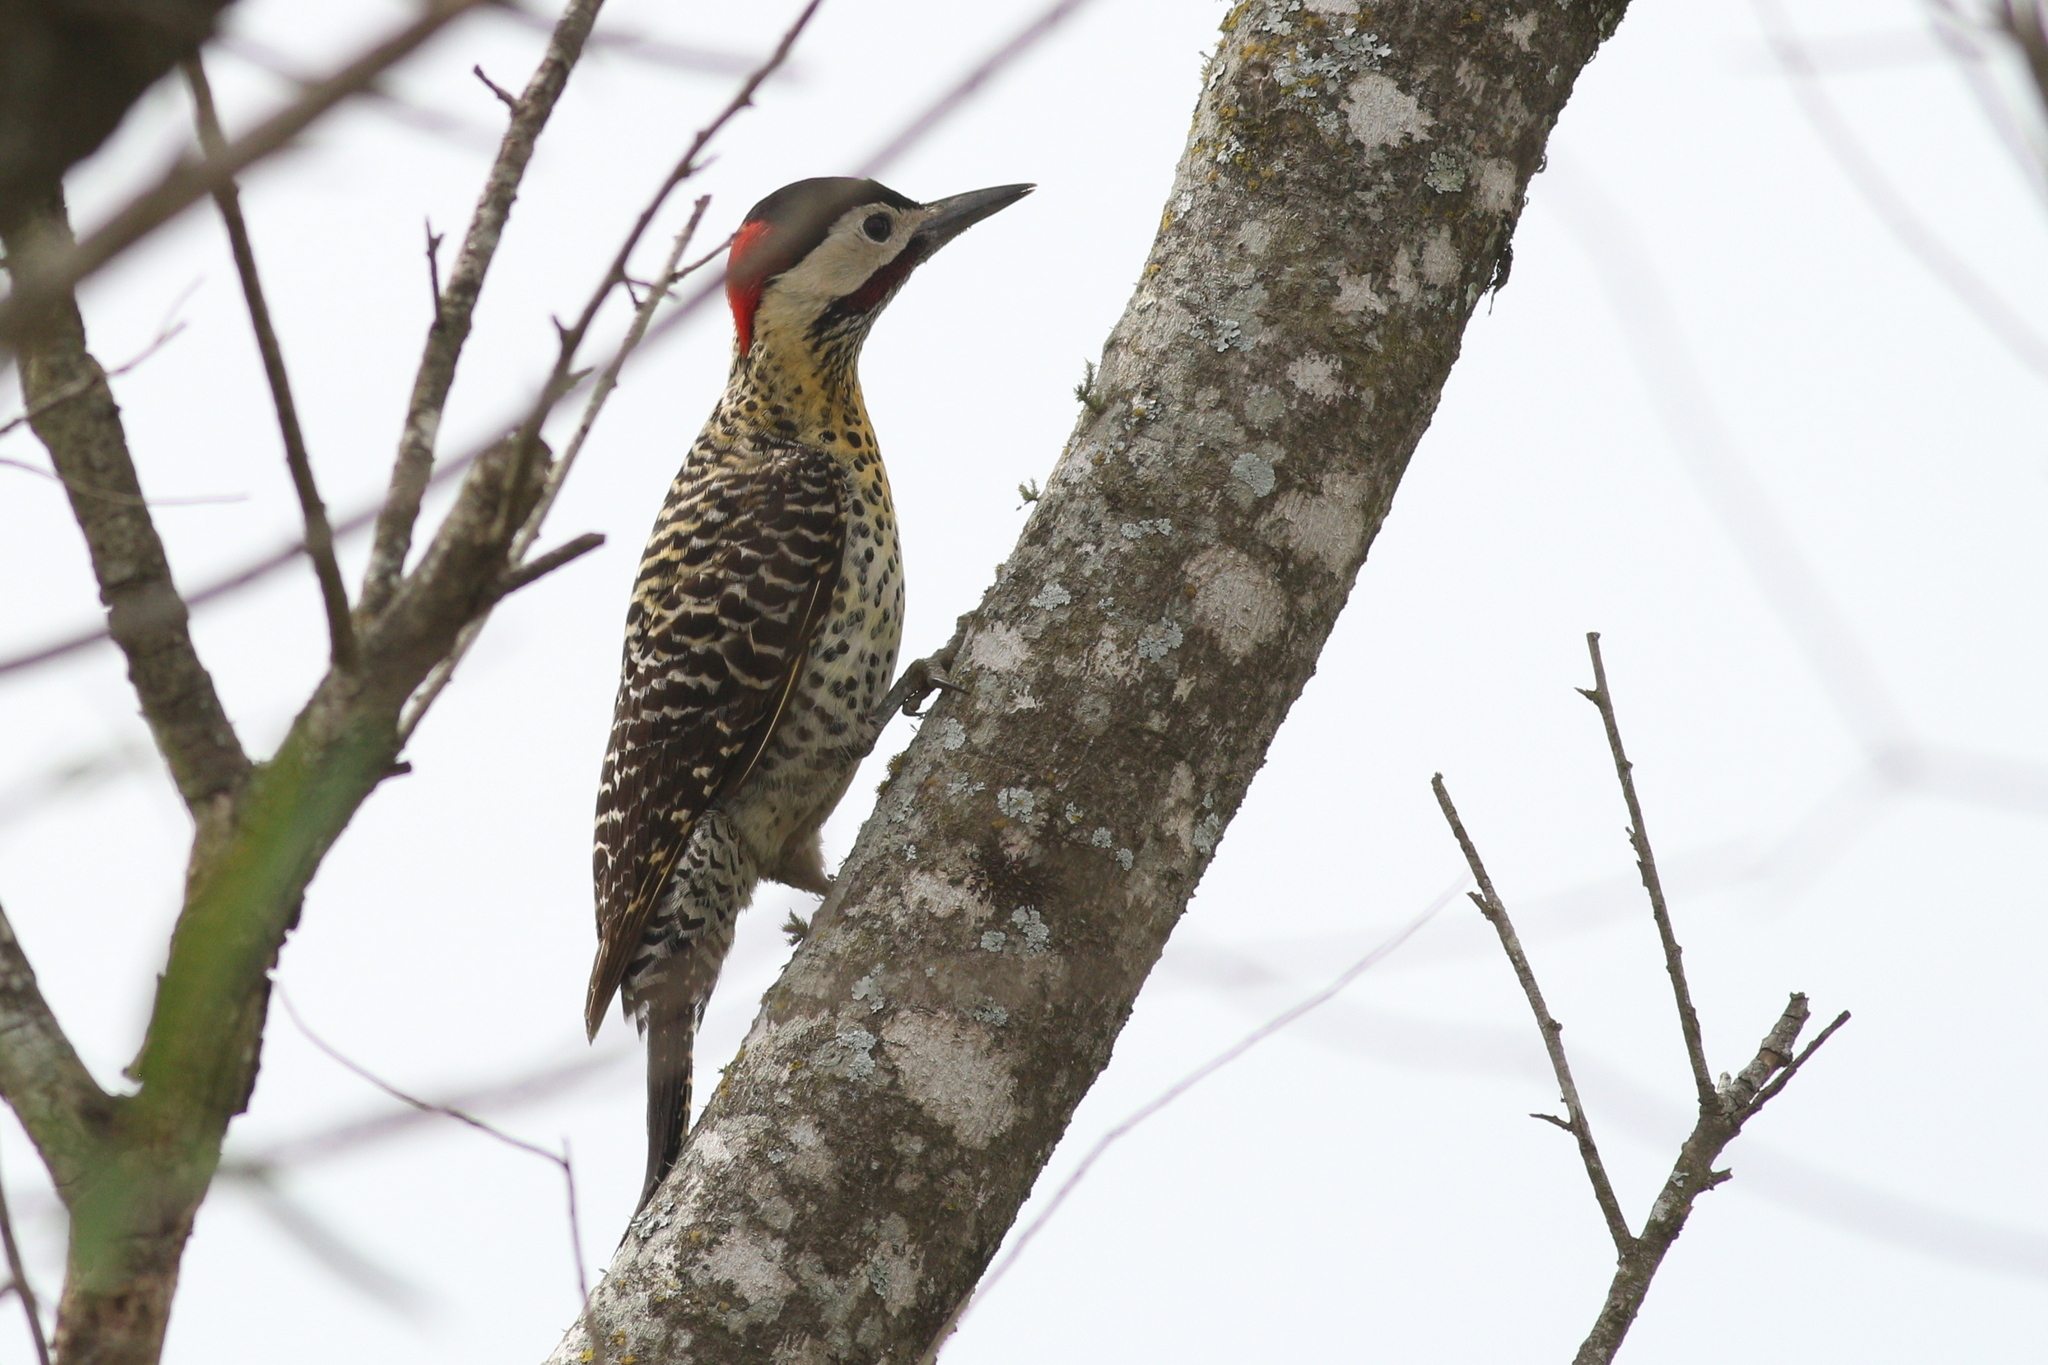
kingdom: Animalia
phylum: Chordata
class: Aves
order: Piciformes
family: Picidae
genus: Colaptes
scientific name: Colaptes melanochloros
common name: Green-barred woodpecker
